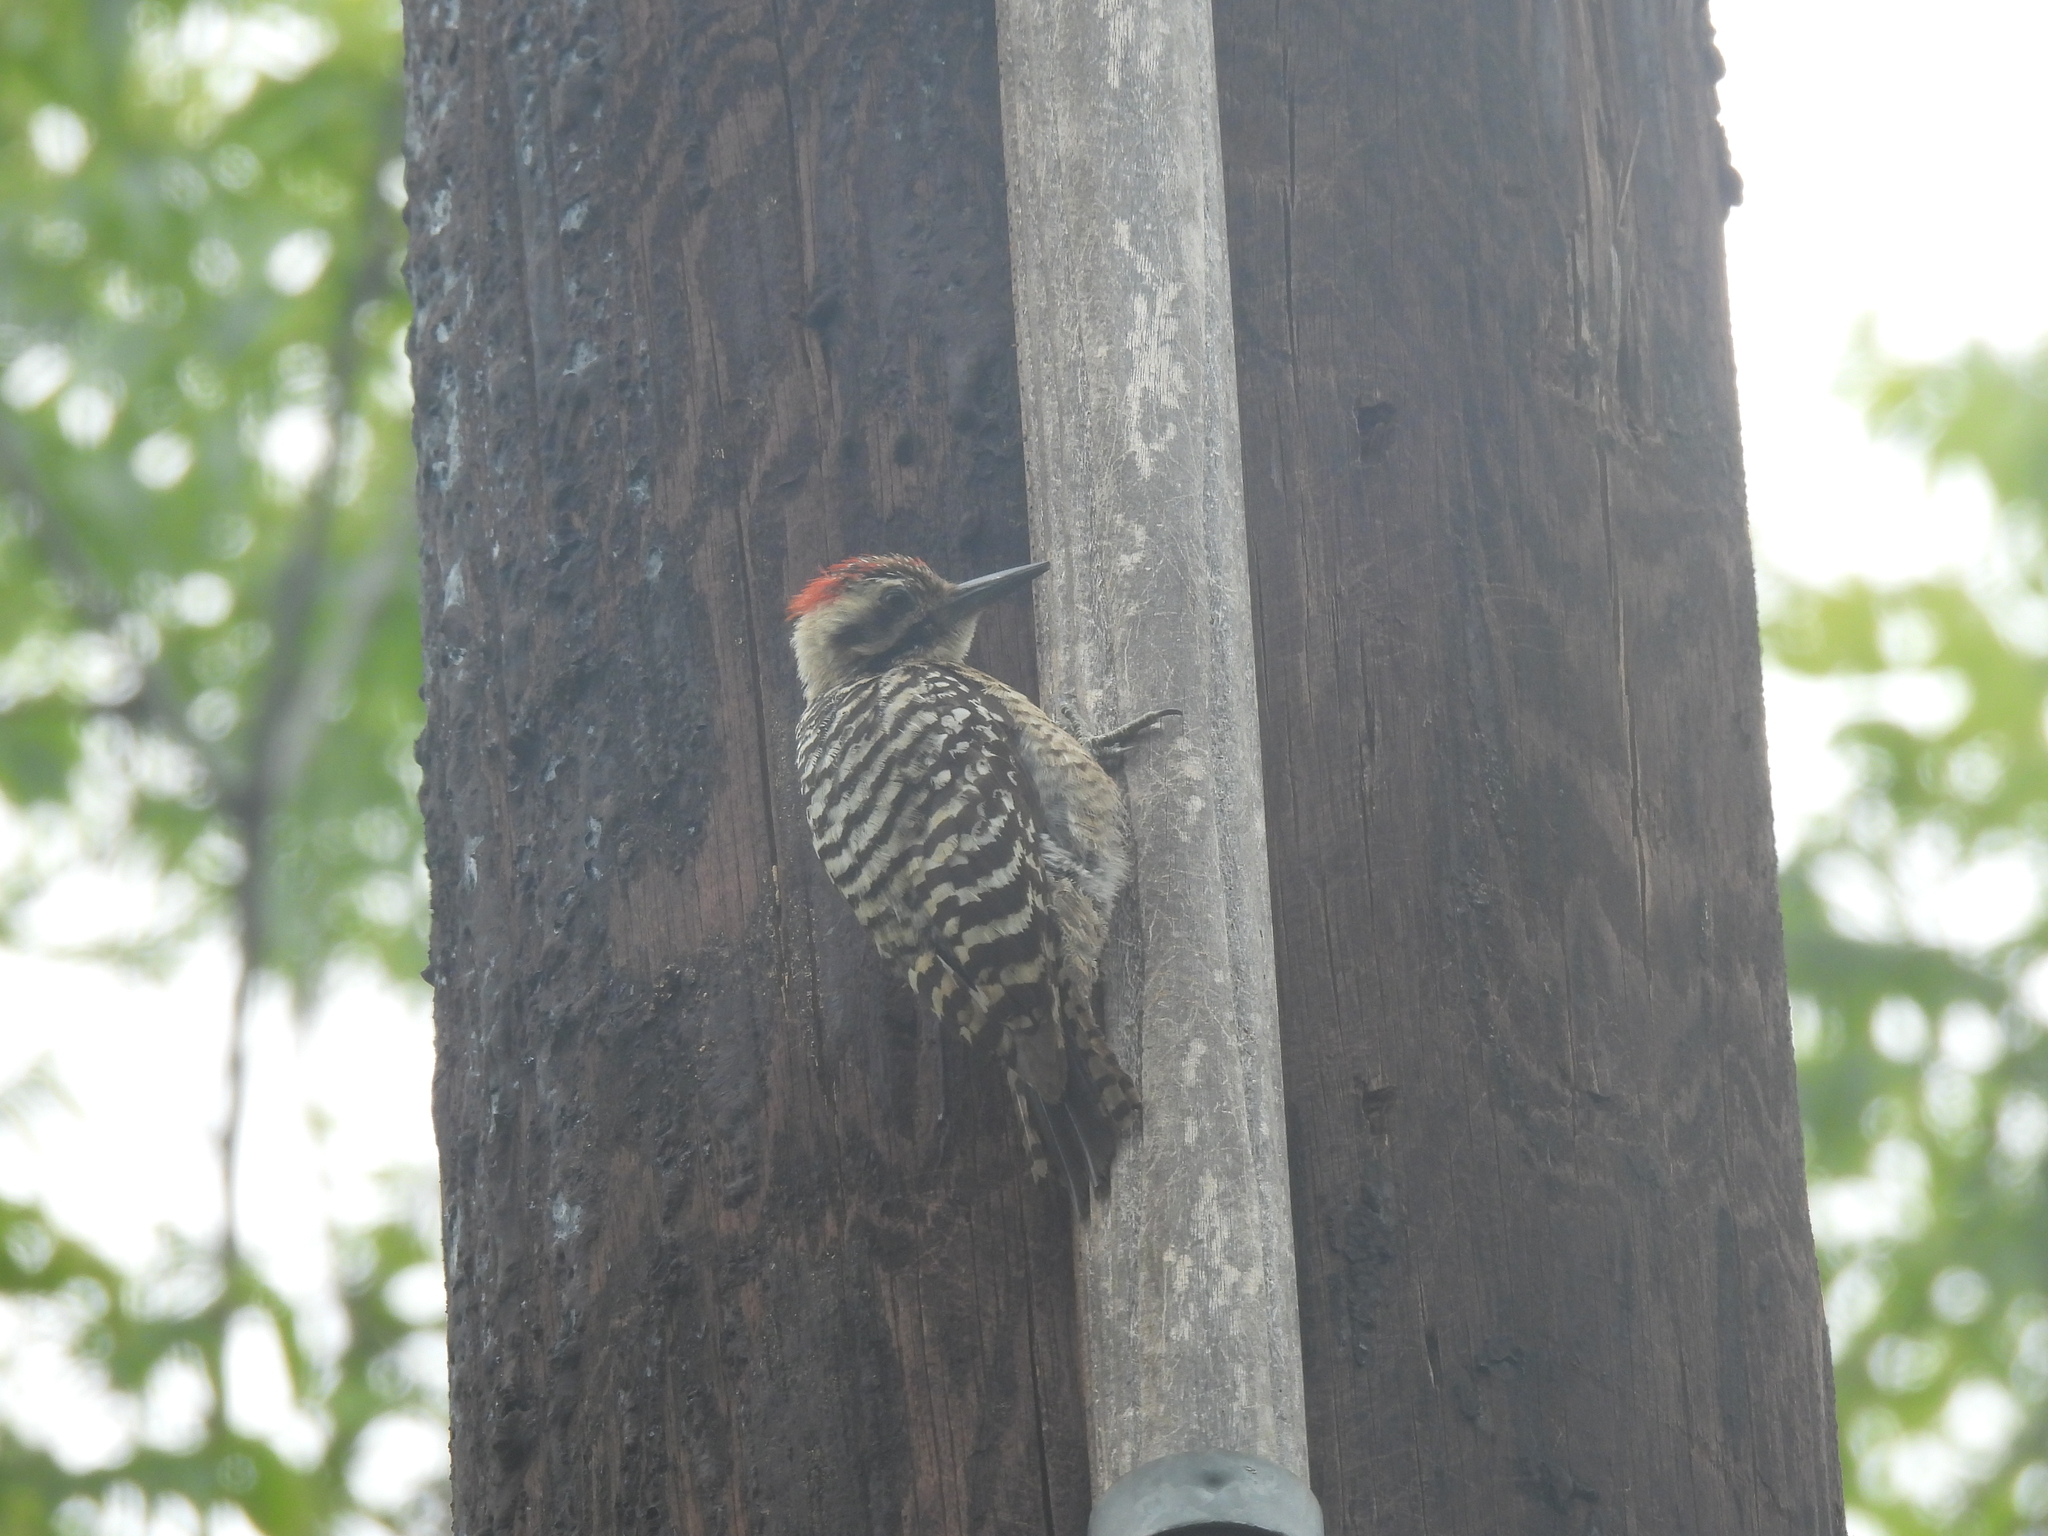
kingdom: Animalia
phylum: Chordata
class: Aves
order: Piciformes
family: Picidae
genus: Dryobates
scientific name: Dryobates scalaris
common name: Ladder-backed woodpecker
